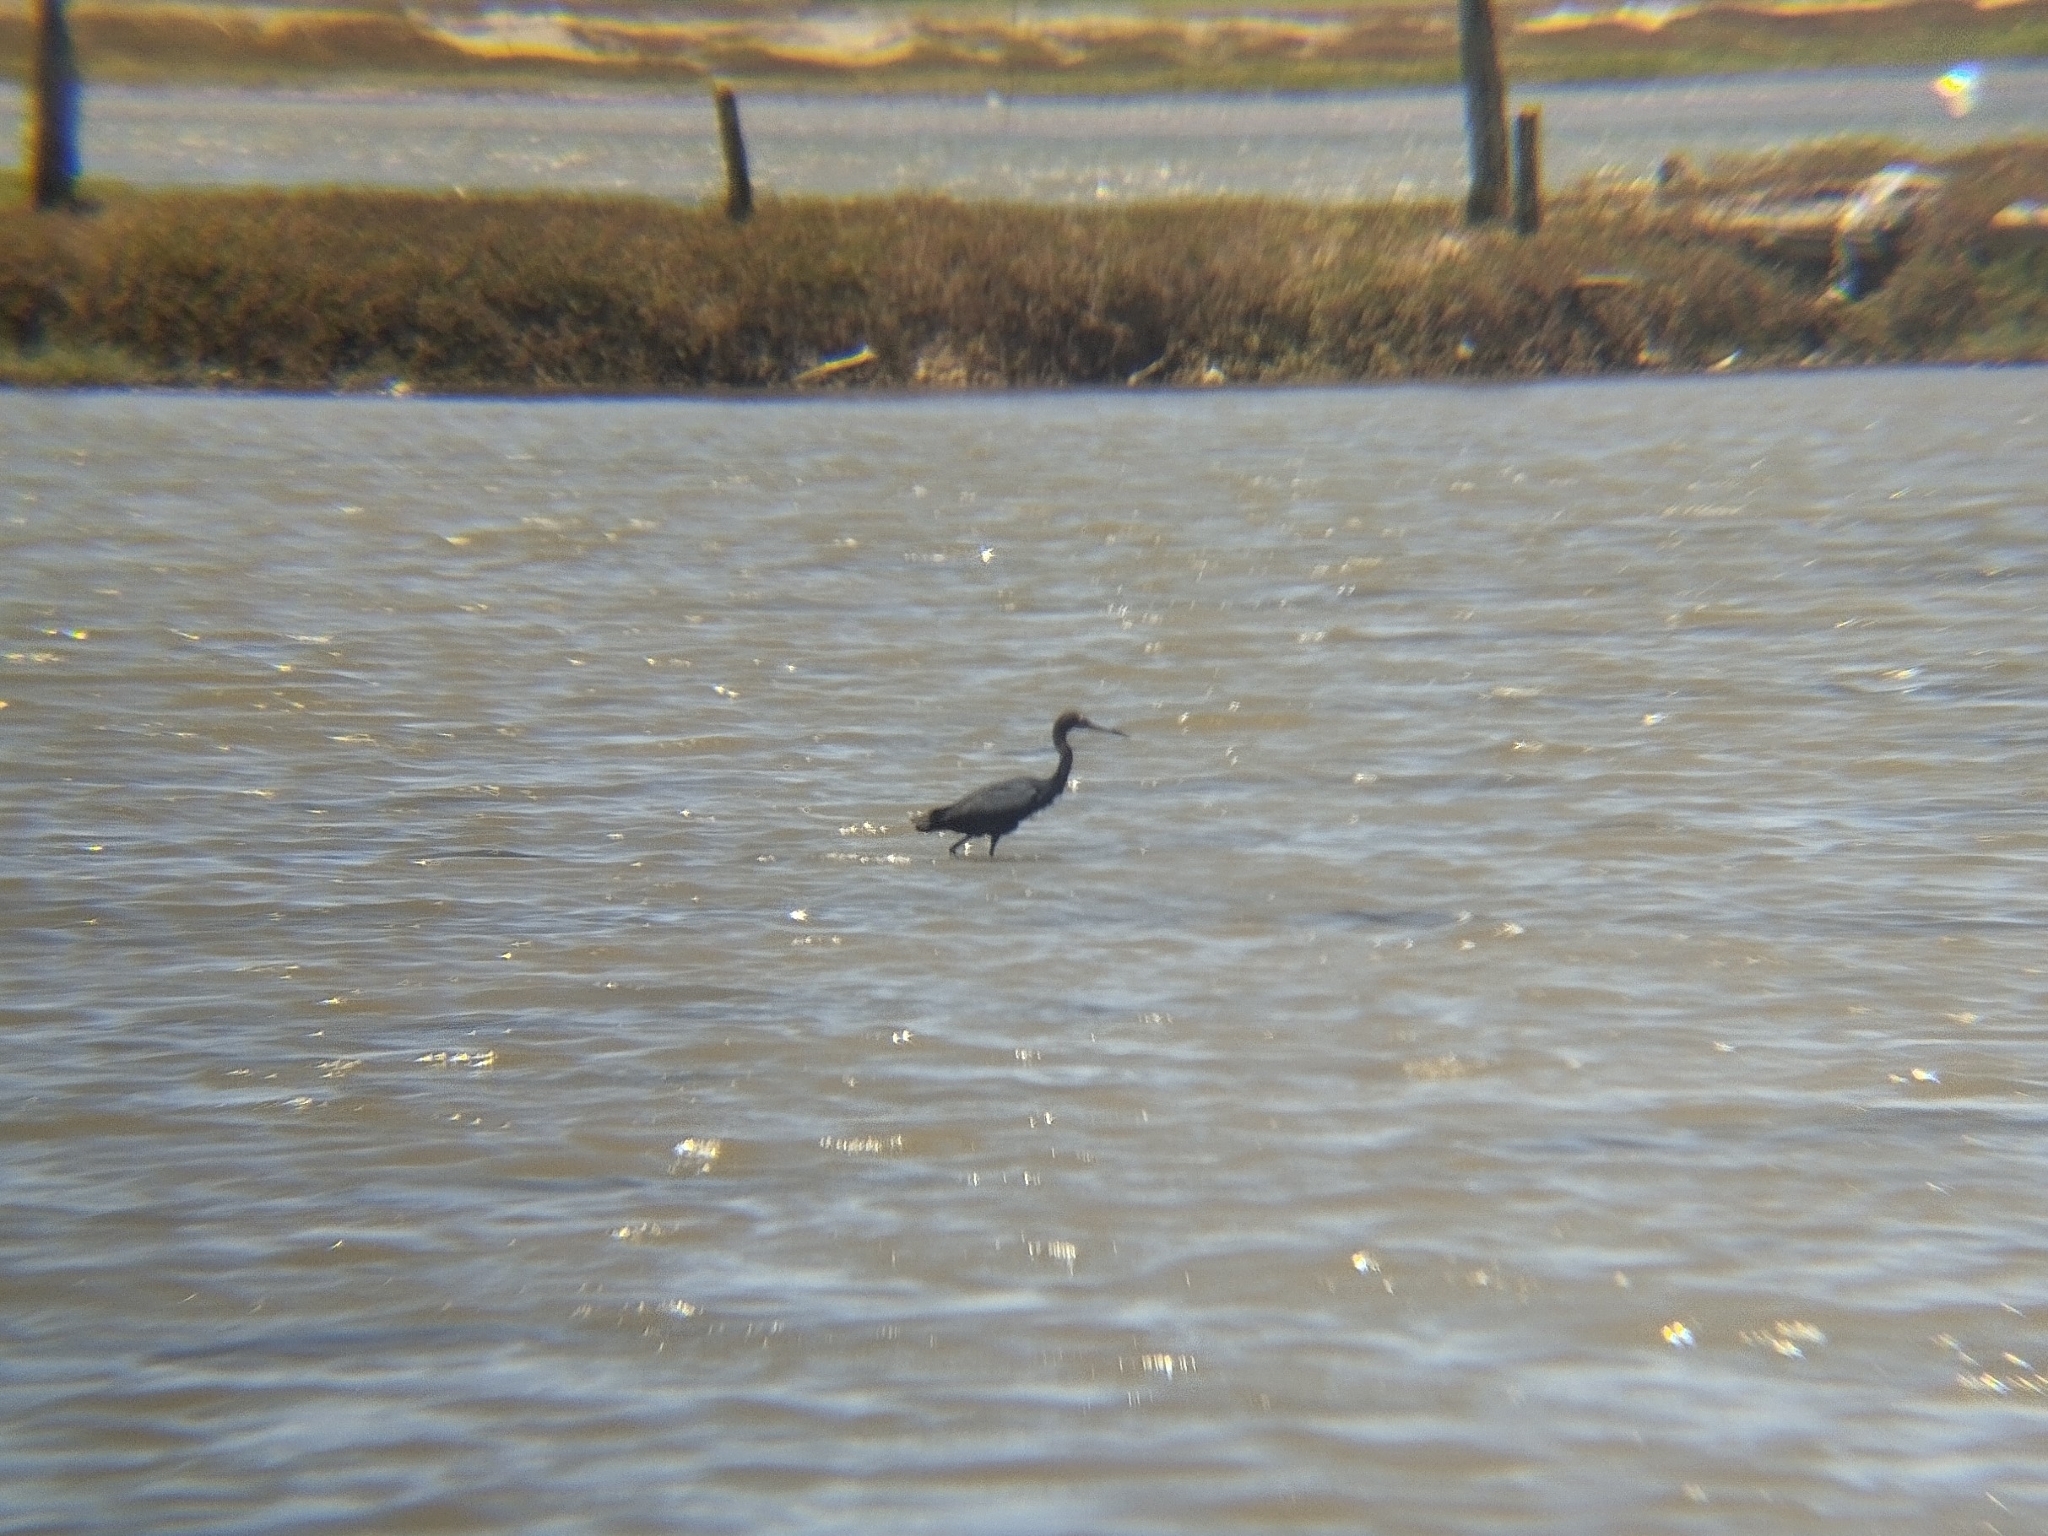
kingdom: Animalia
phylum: Chordata
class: Aves
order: Pelecaniformes
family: Ardeidae
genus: Egretta
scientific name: Egretta caerulea
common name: Little blue heron
